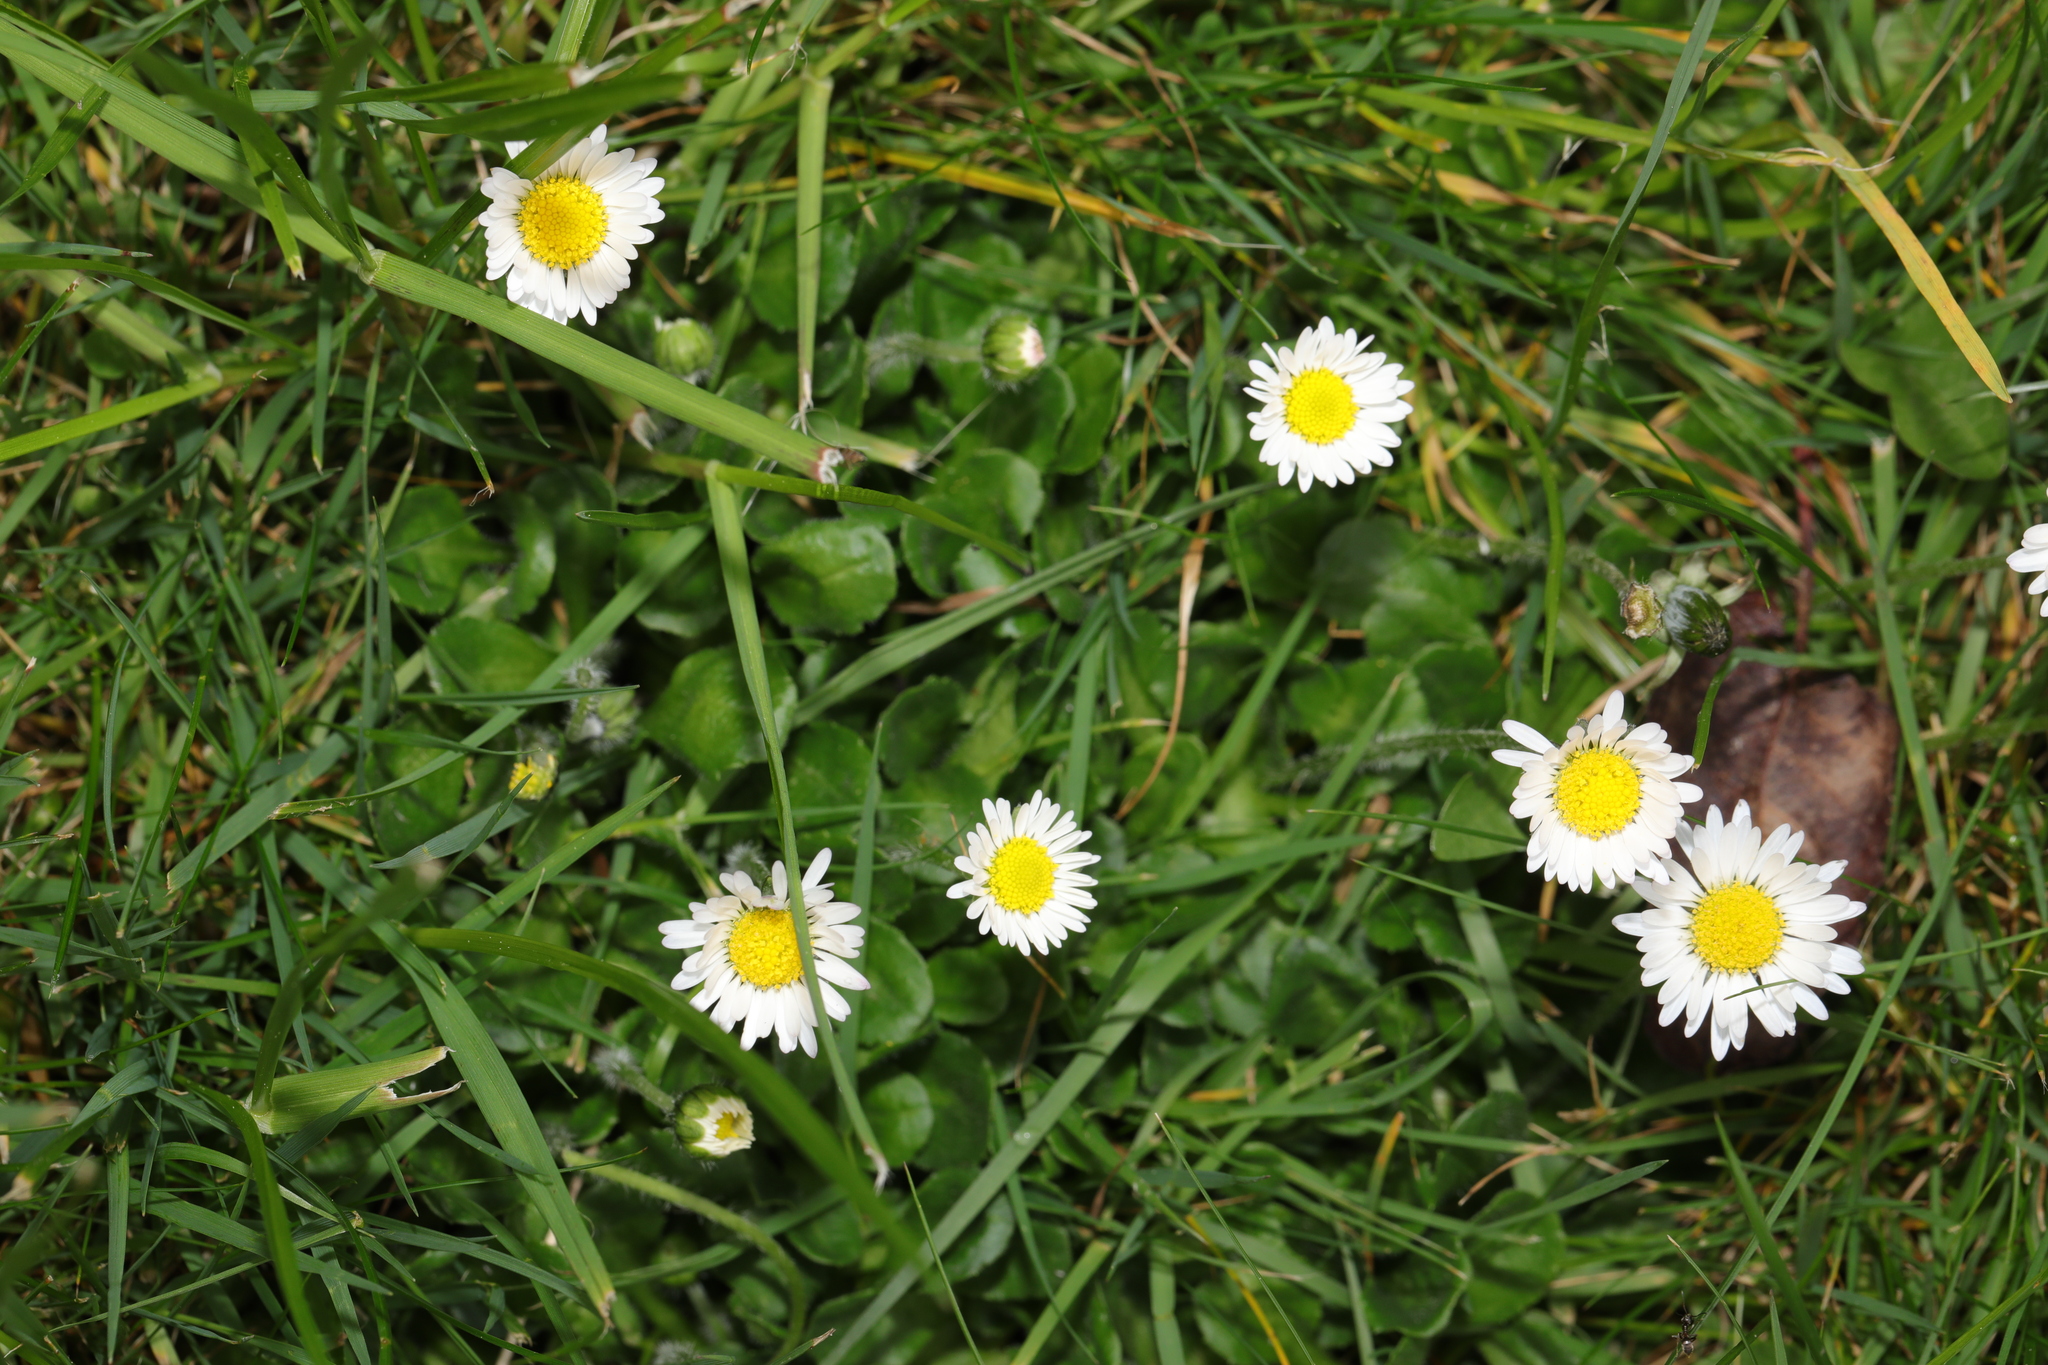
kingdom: Plantae
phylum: Tracheophyta
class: Magnoliopsida
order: Asterales
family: Asteraceae
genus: Bellis
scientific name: Bellis perennis
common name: Lawndaisy
